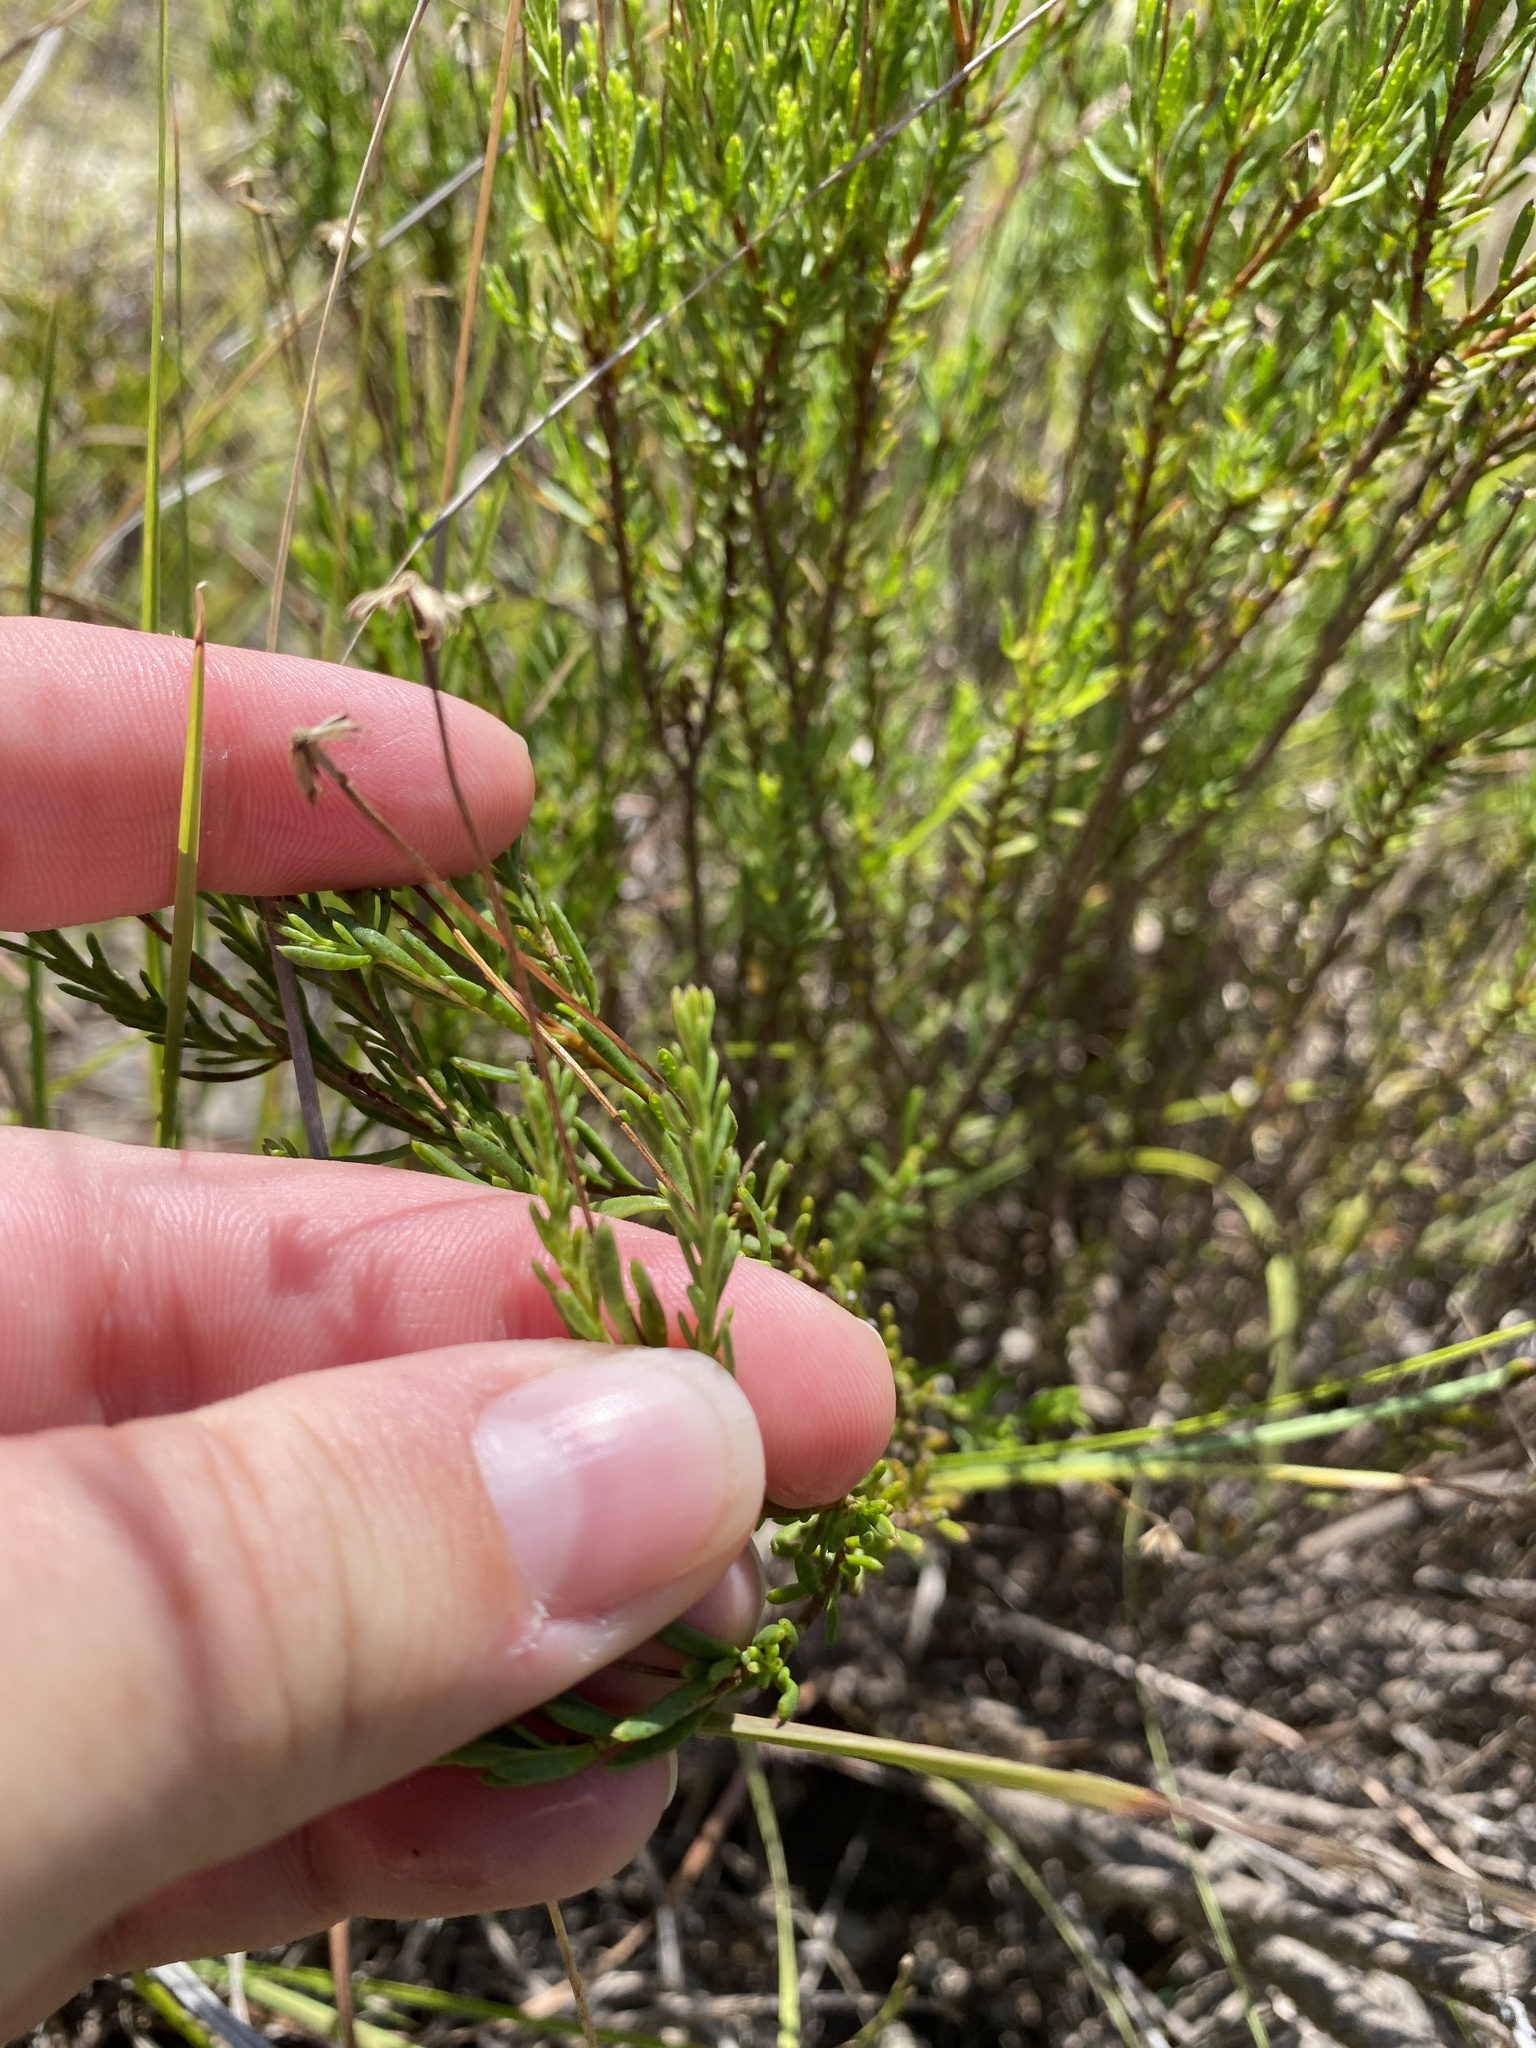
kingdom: Plantae
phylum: Tracheophyta
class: Magnoliopsida
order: Asterales
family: Asteraceae
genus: Chrysactinia
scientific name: Chrysactinia mexicana
